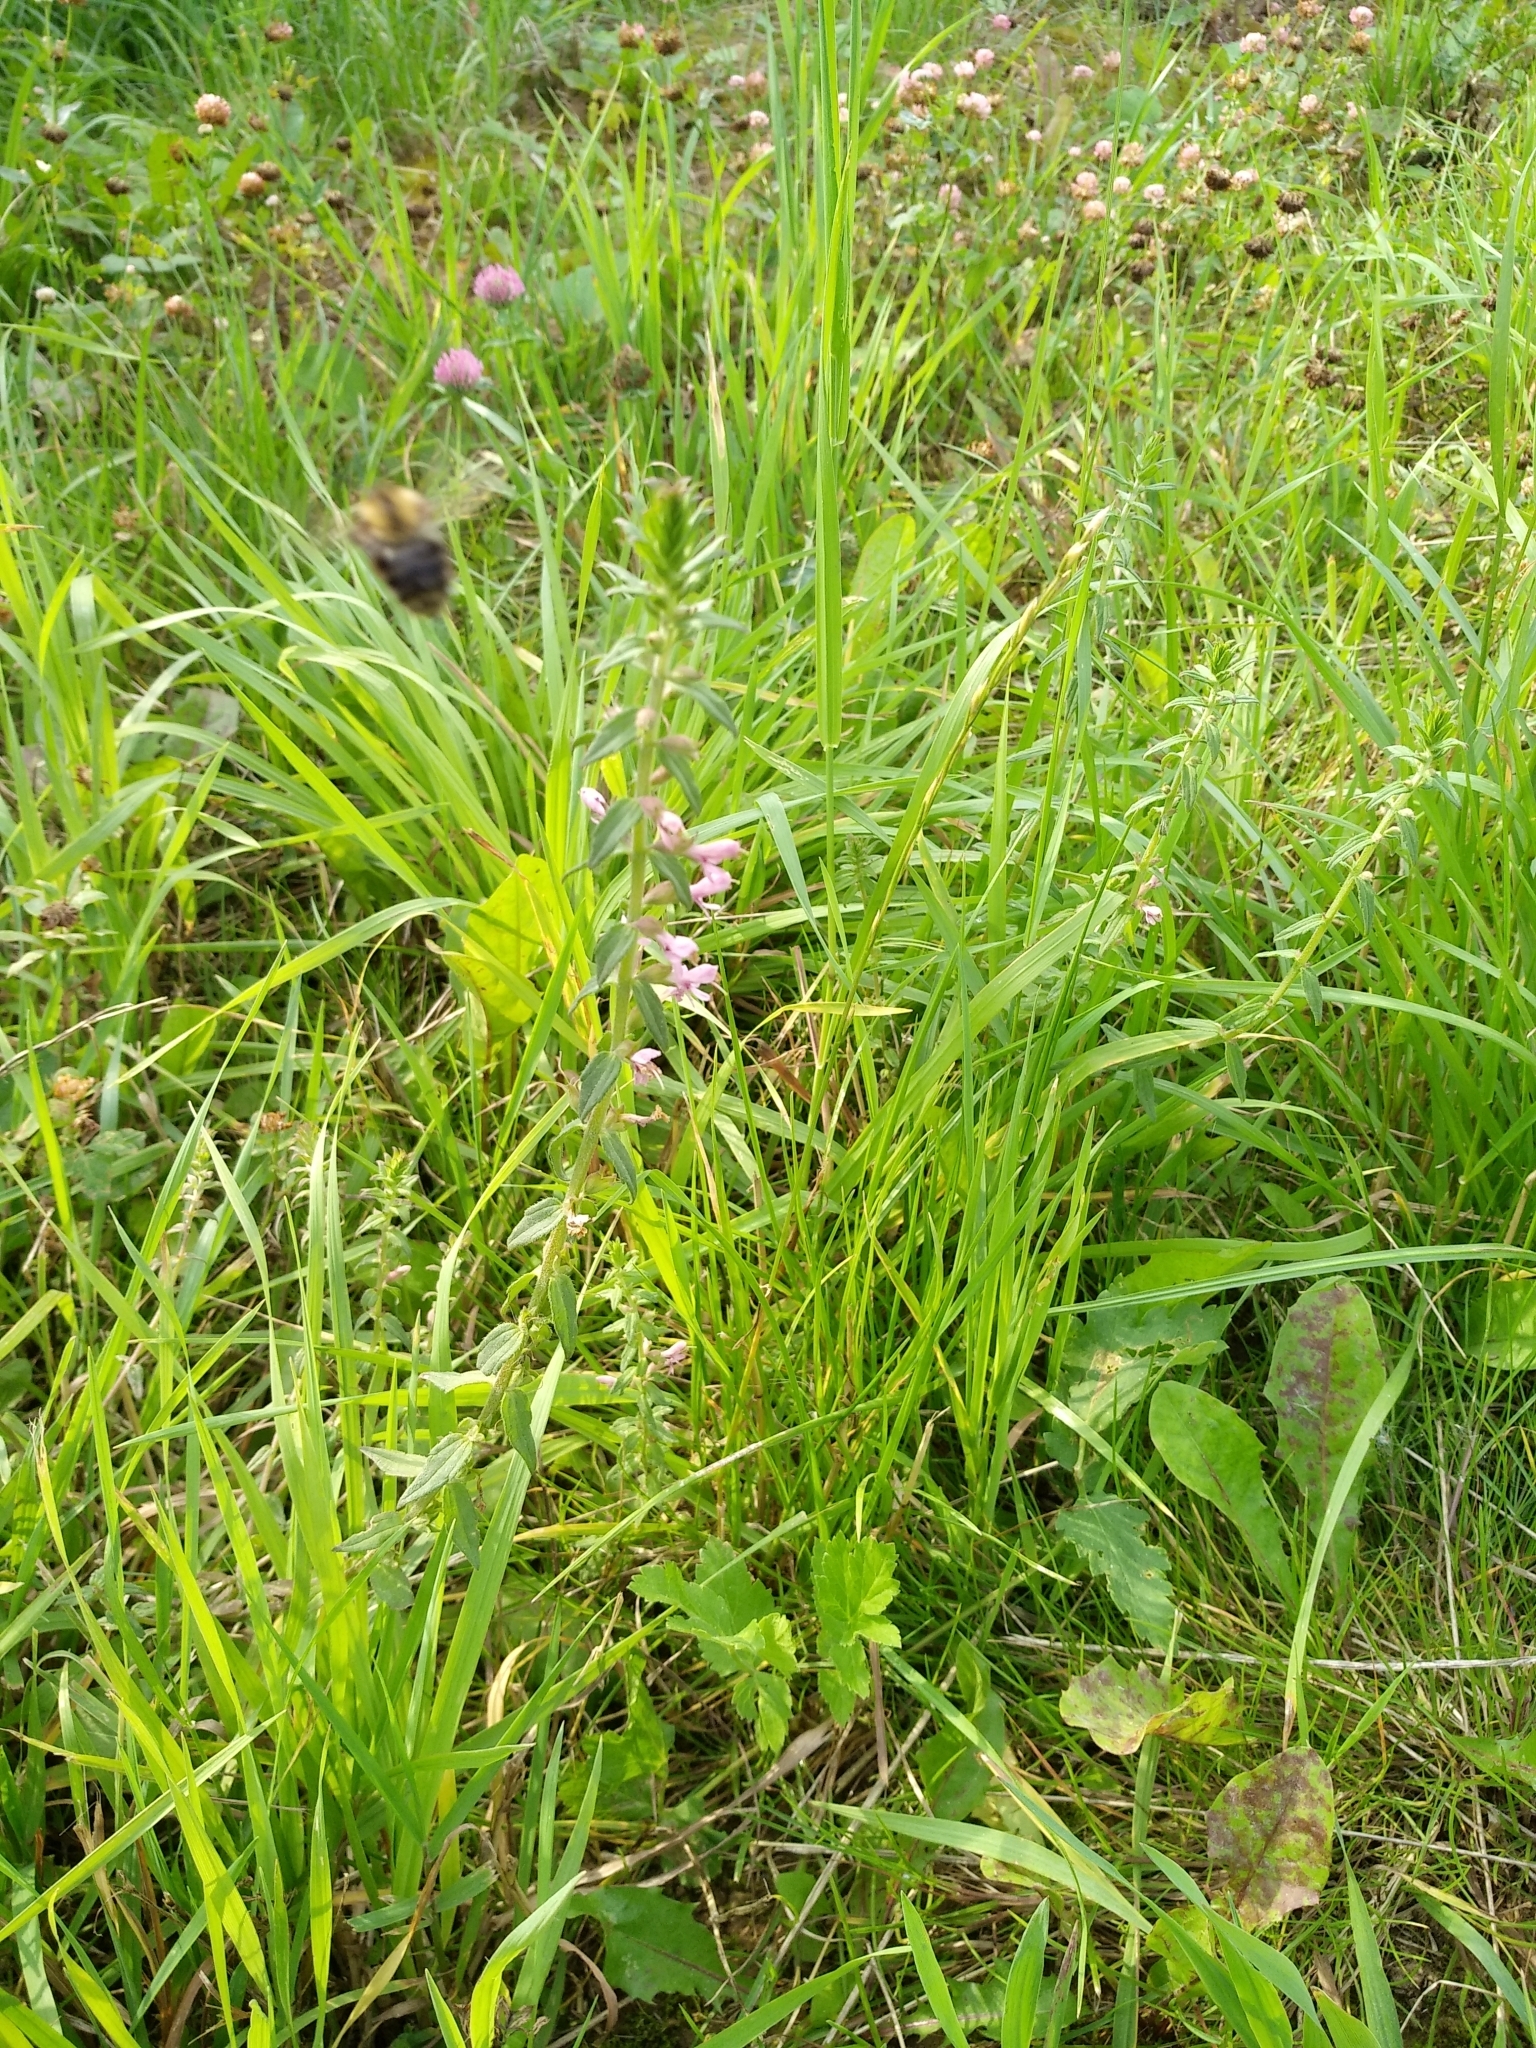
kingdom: Plantae
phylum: Tracheophyta
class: Magnoliopsida
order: Lamiales
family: Orobanchaceae
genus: Odontites
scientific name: Odontites vulgaris
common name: Broomrape
